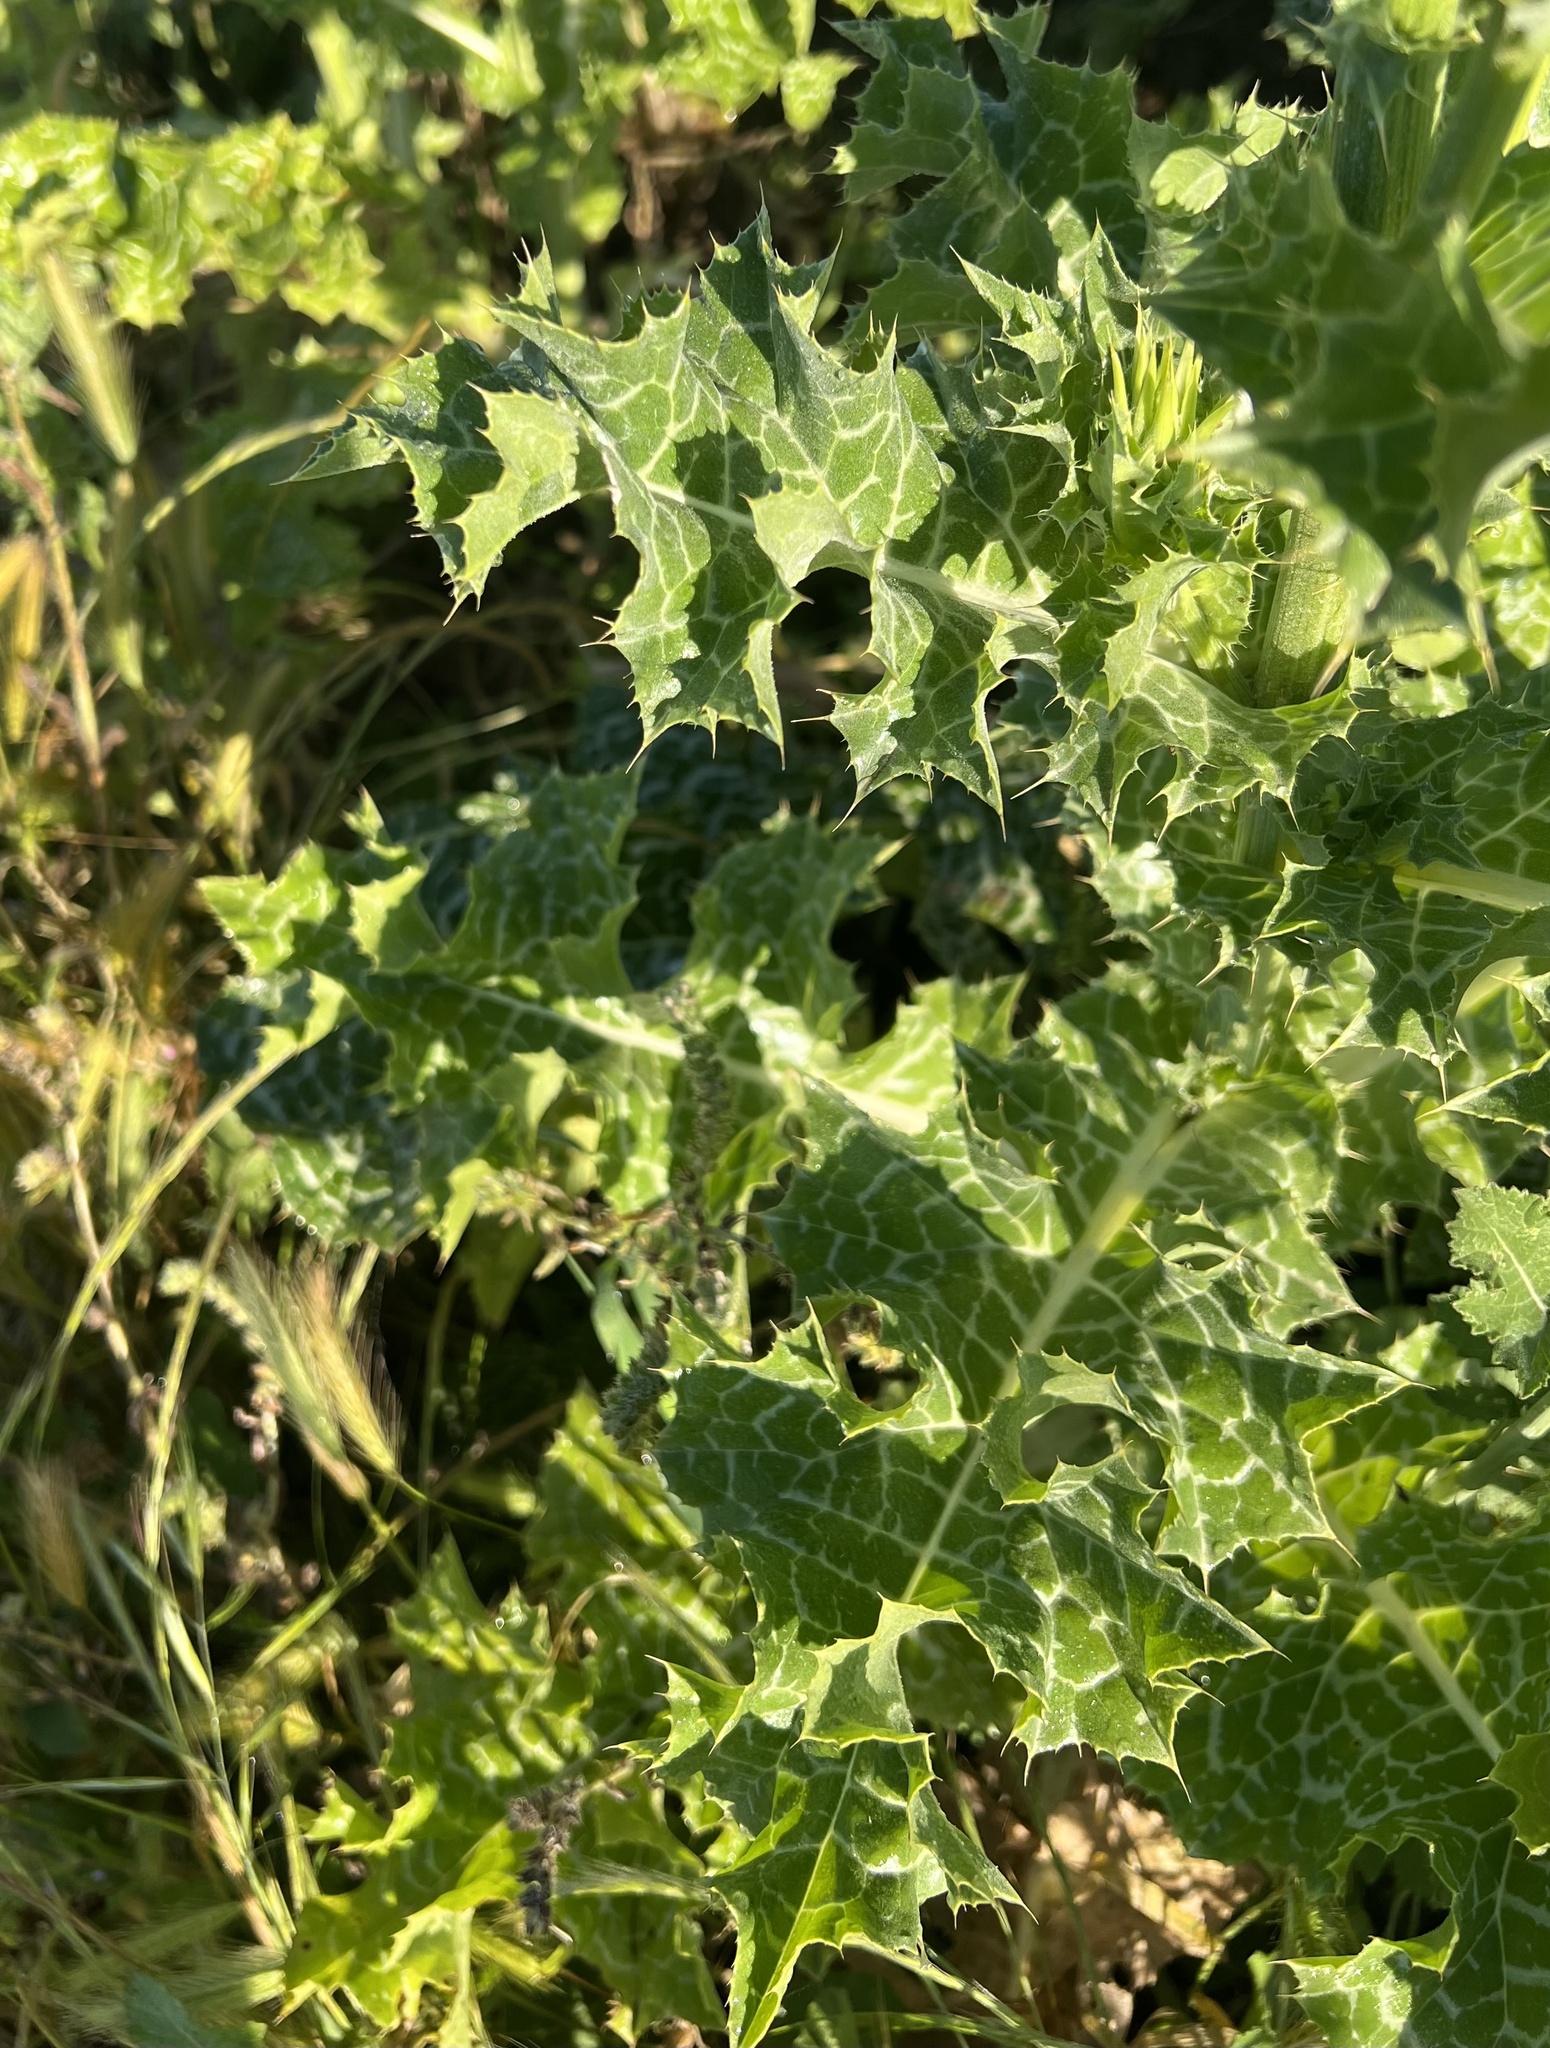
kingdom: Plantae
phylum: Tracheophyta
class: Magnoliopsida
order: Asterales
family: Asteraceae
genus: Silybum
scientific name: Silybum marianum
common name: Milk thistle
